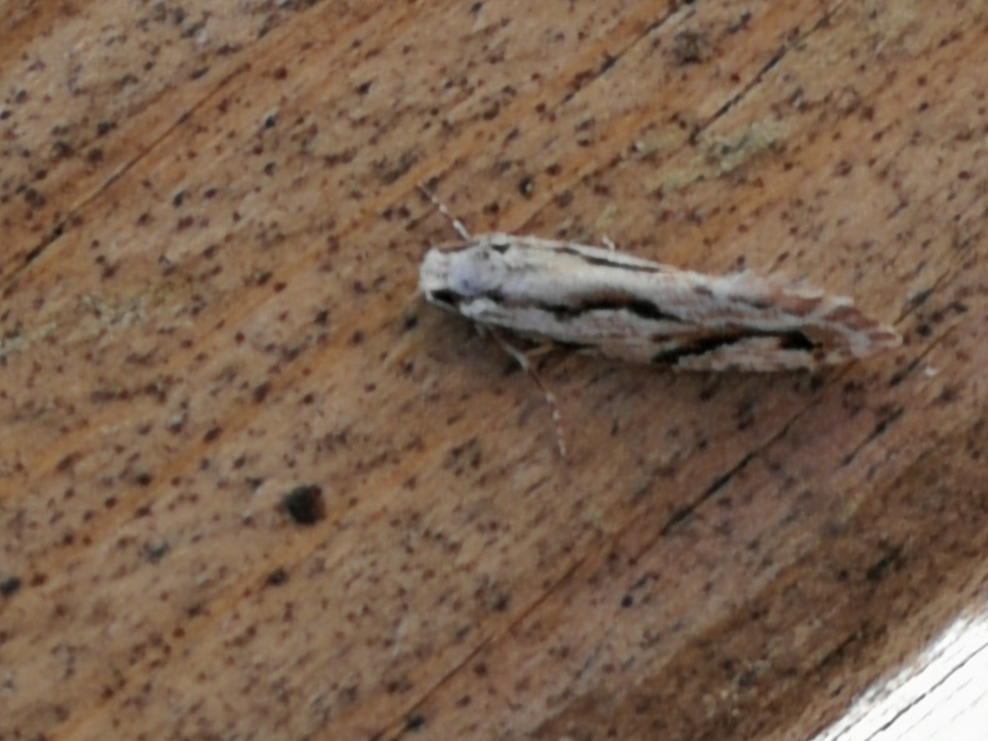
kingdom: Animalia
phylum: Arthropoda
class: Insecta
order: Lepidoptera
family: Tineidae
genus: Archinemapogon
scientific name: Archinemapogon yildizae
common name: Large scotch clothes
